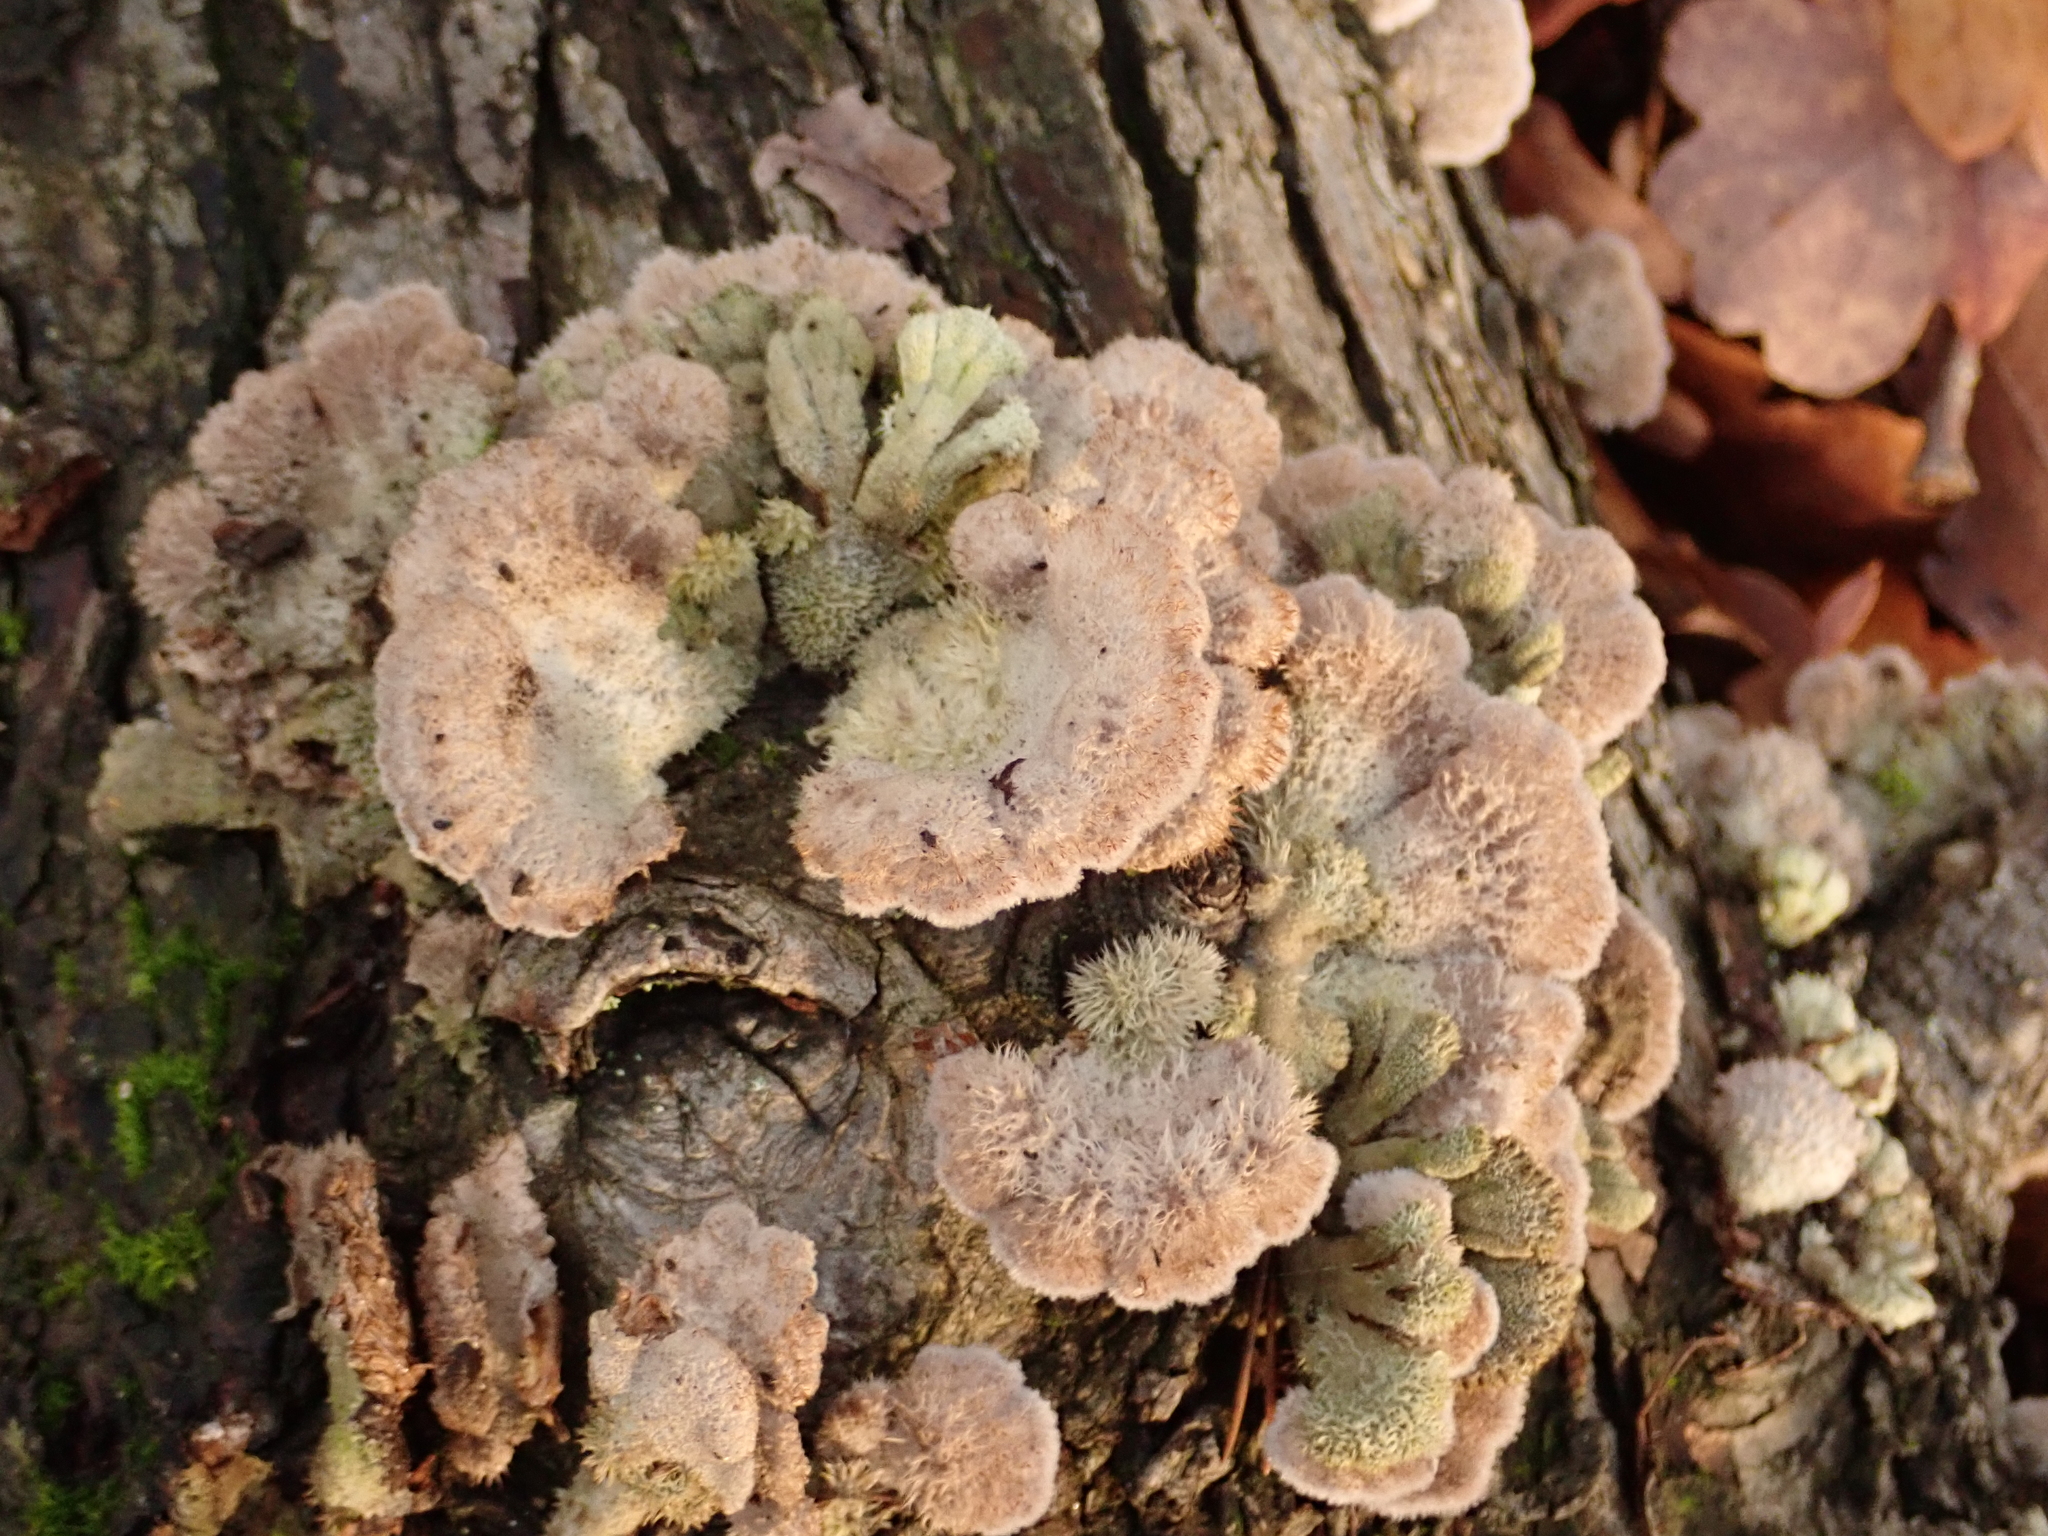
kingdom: Fungi
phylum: Basidiomycota
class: Agaricomycetes
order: Agaricales
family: Schizophyllaceae
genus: Schizophyllum
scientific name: Schizophyllum commune
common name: Common porecrust
